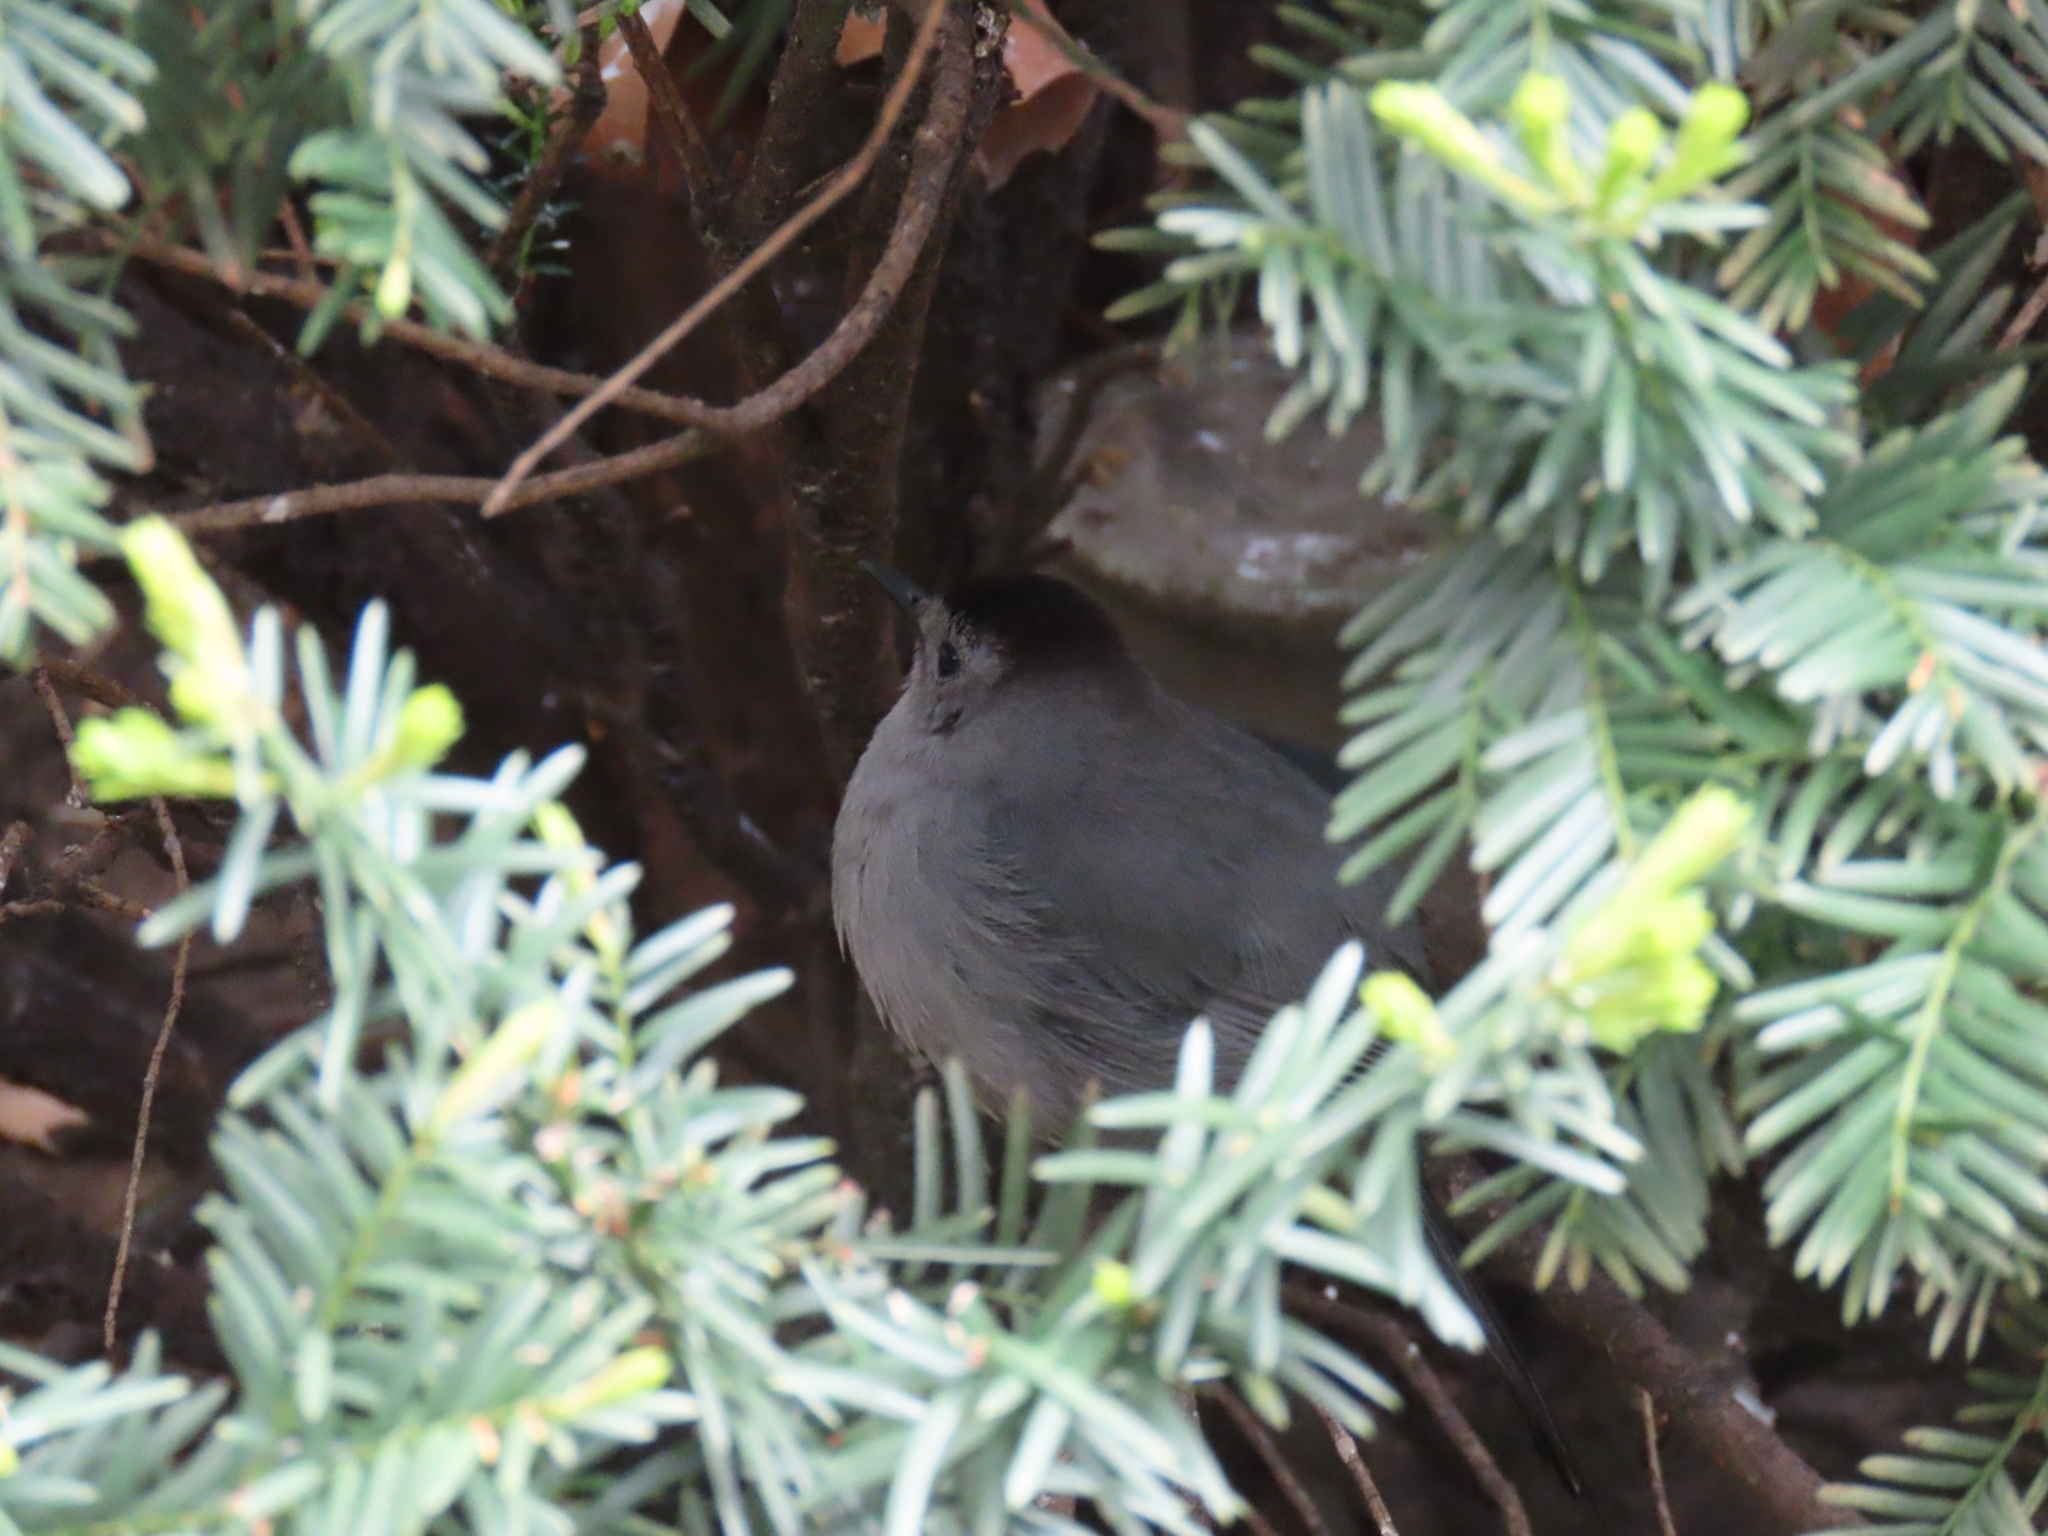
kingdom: Animalia
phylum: Chordata
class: Aves
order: Passeriformes
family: Mimidae
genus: Dumetella
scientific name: Dumetella carolinensis
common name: Gray catbird
